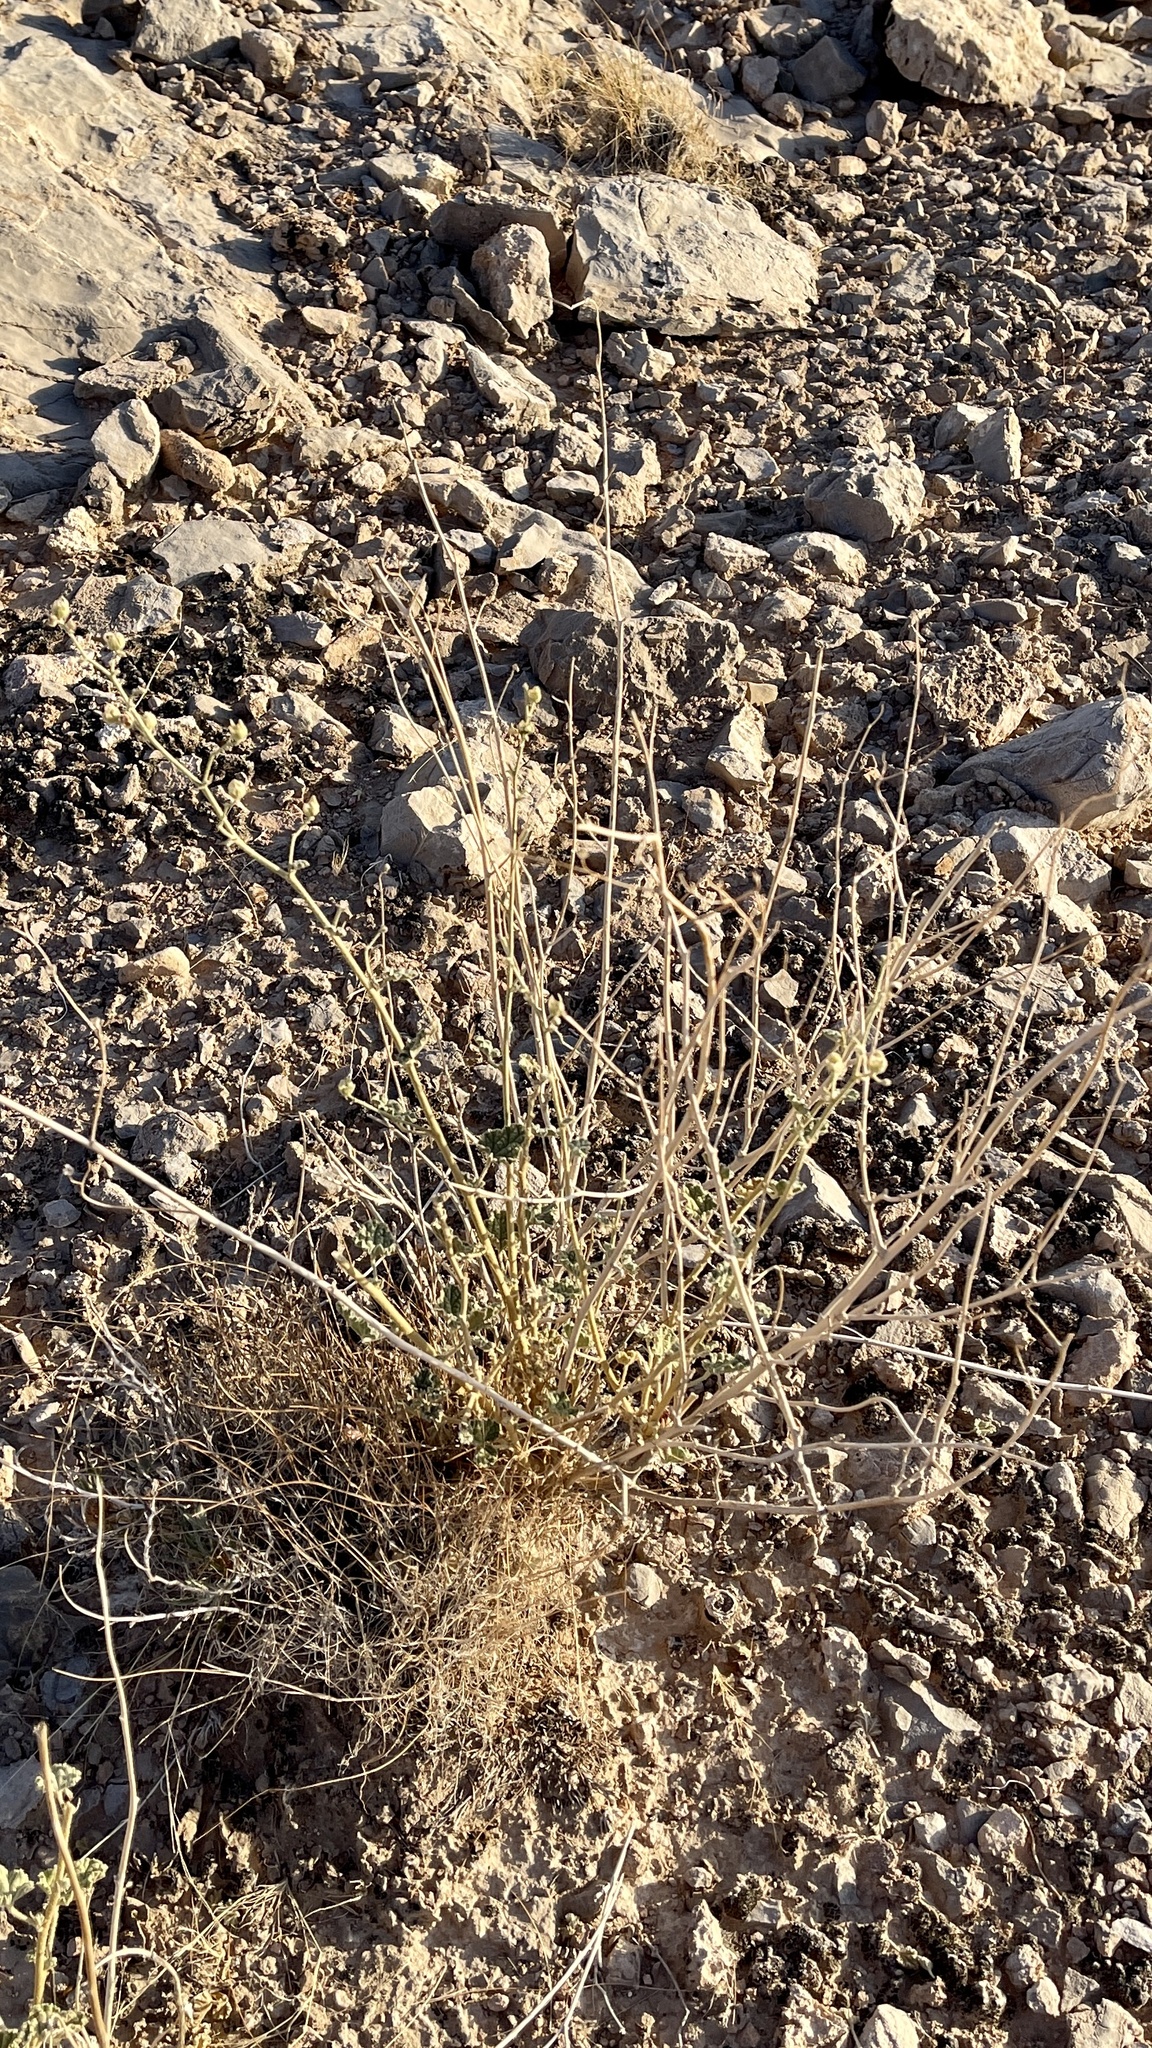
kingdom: Plantae
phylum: Tracheophyta
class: Magnoliopsida
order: Malvales
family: Malvaceae
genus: Sphaeralcea
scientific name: Sphaeralcea ambigua
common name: Apricot globe-mallow
